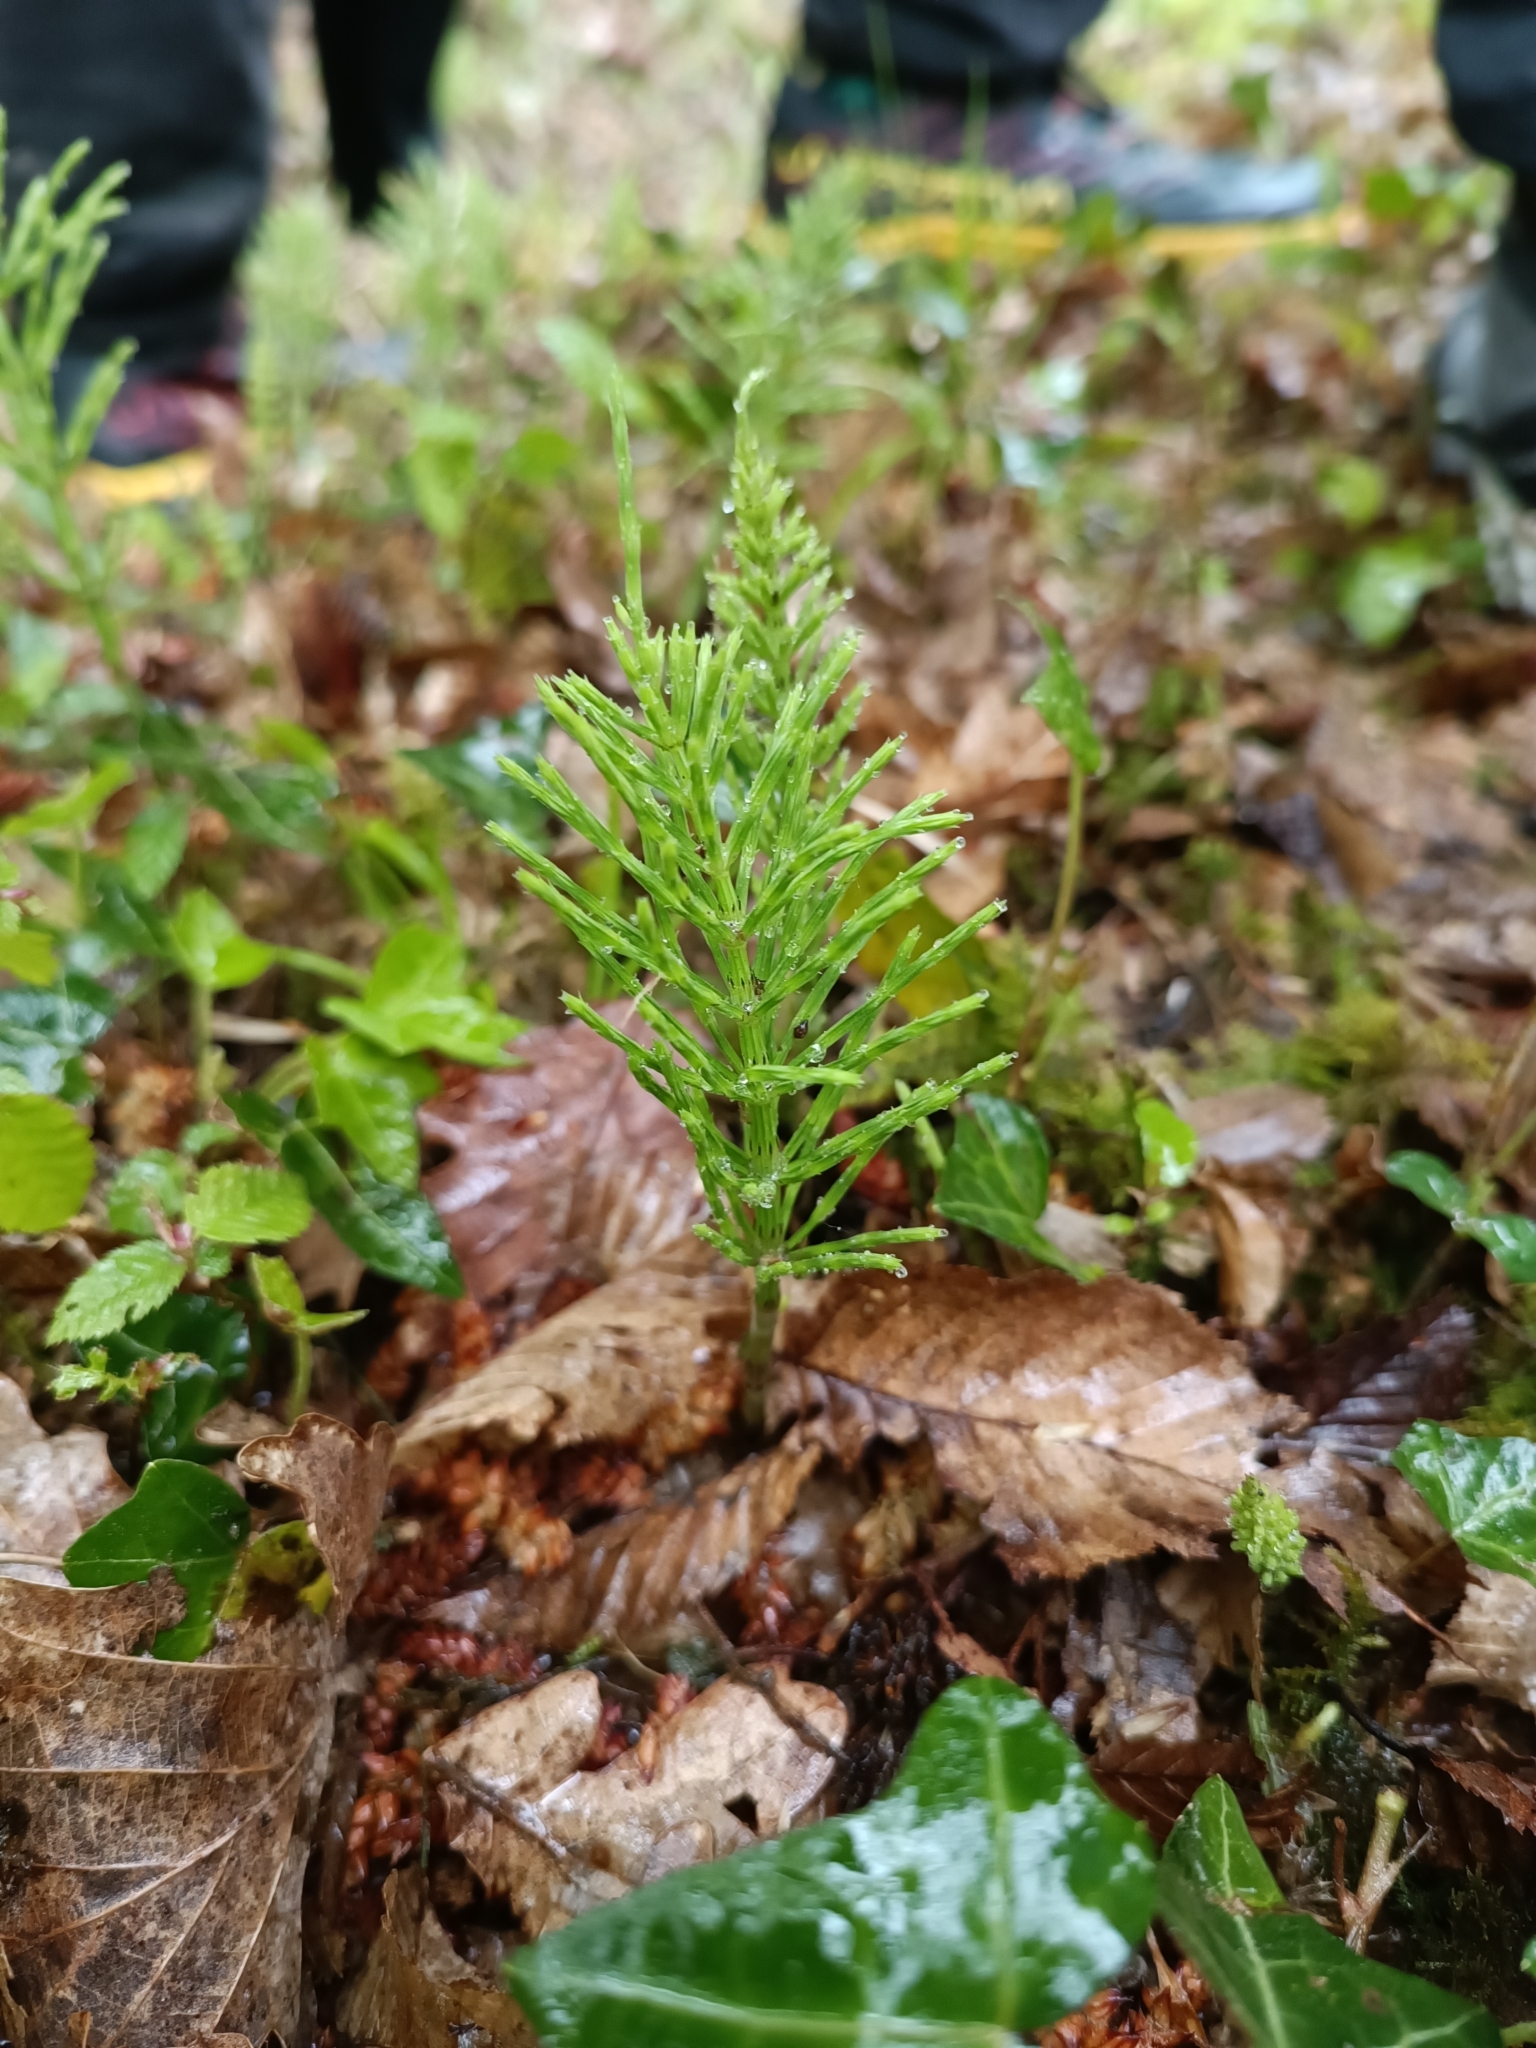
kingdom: Plantae
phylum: Tracheophyta
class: Polypodiopsida
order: Equisetales
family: Equisetaceae
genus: Equisetum
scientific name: Equisetum arvense
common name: Field horsetail
